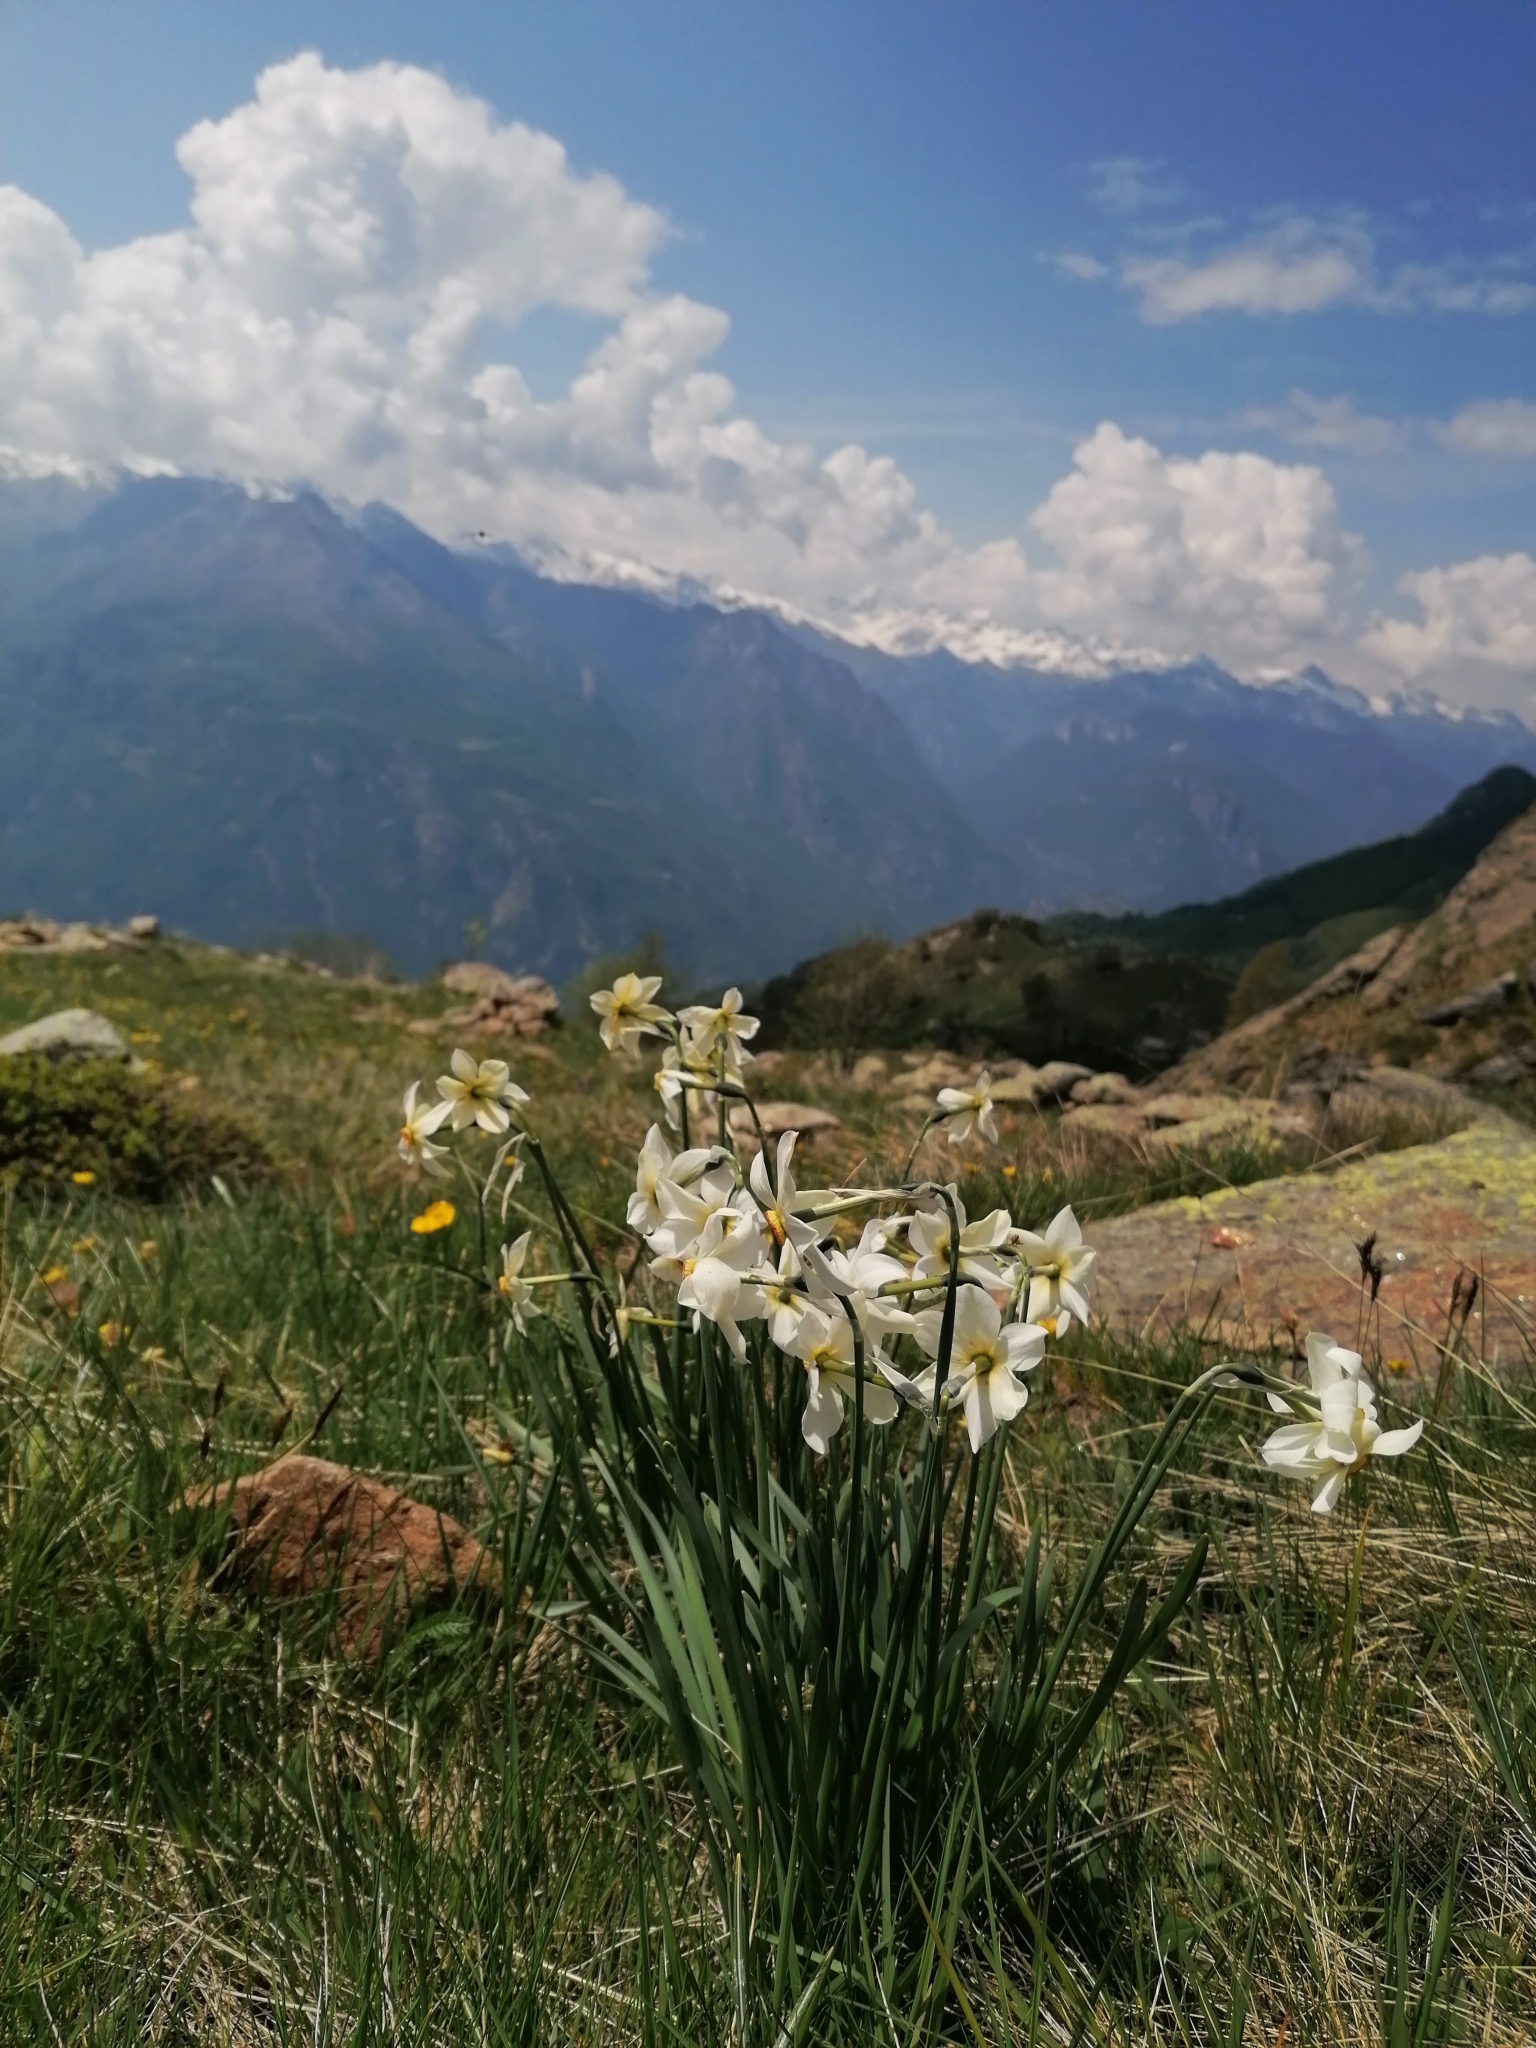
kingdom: Plantae
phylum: Tracheophyta
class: Liliopsida
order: Asparagales
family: Amaryllidaceae
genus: Narcissus
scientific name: Narcissus poeticus
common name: Pheasant's-eye daffodil
